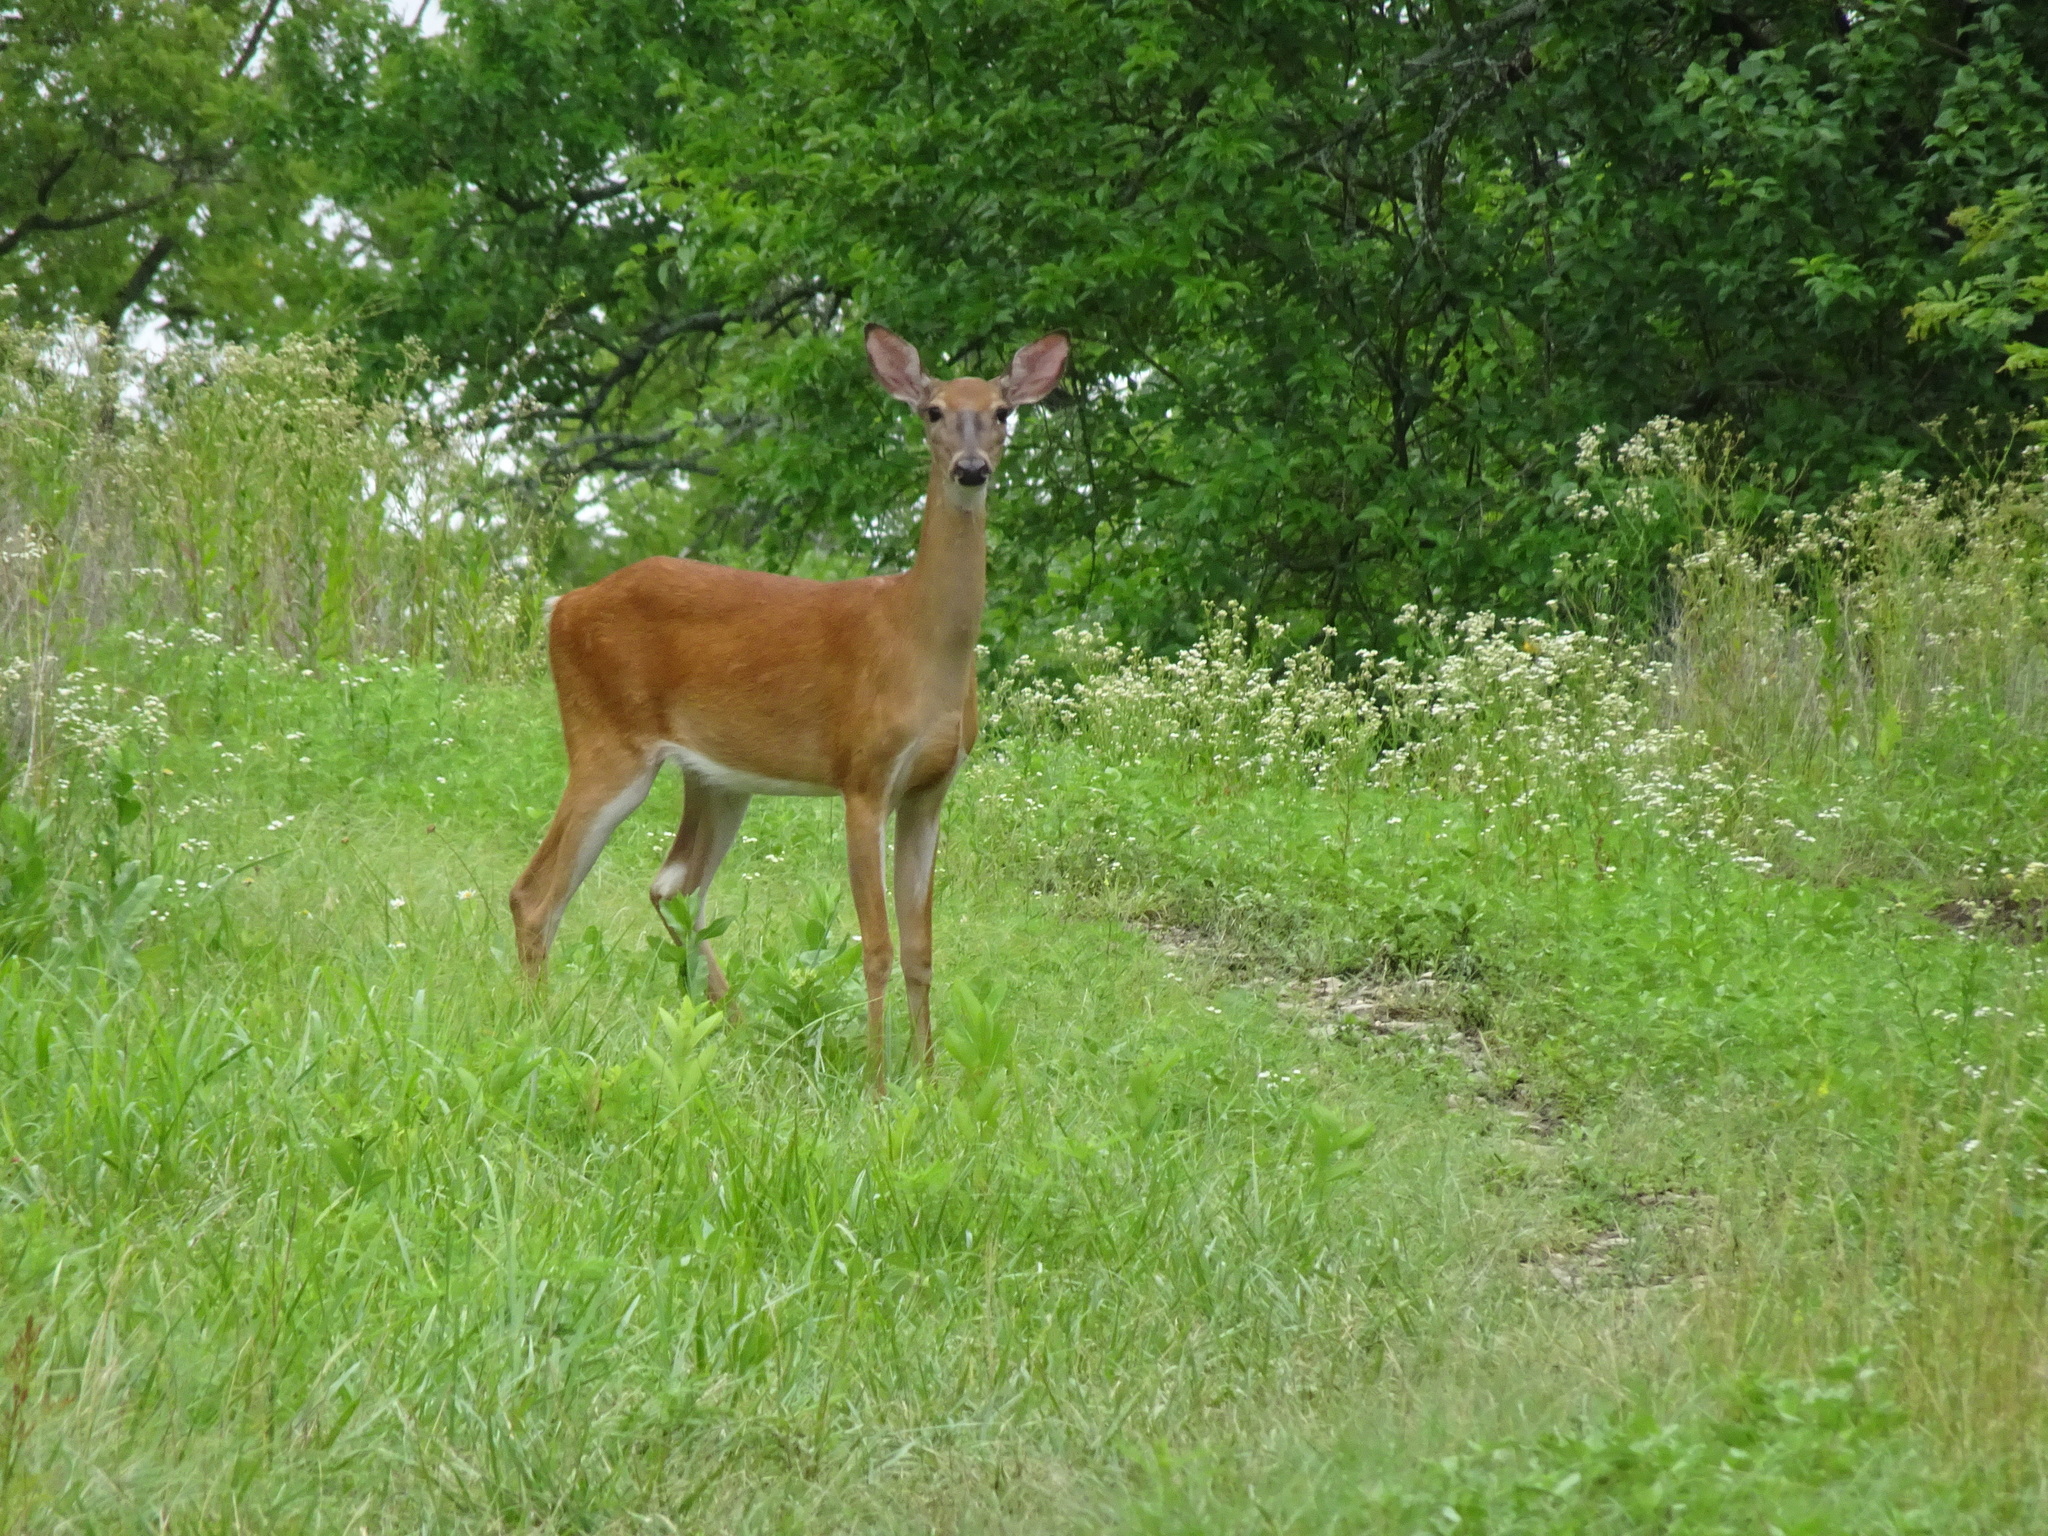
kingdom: Animalia
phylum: Chordata
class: Mammalia
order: Artiodactyla
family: Cervidae
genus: Odocoileus
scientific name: Odocoileus virginianus
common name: White-tailed deer
